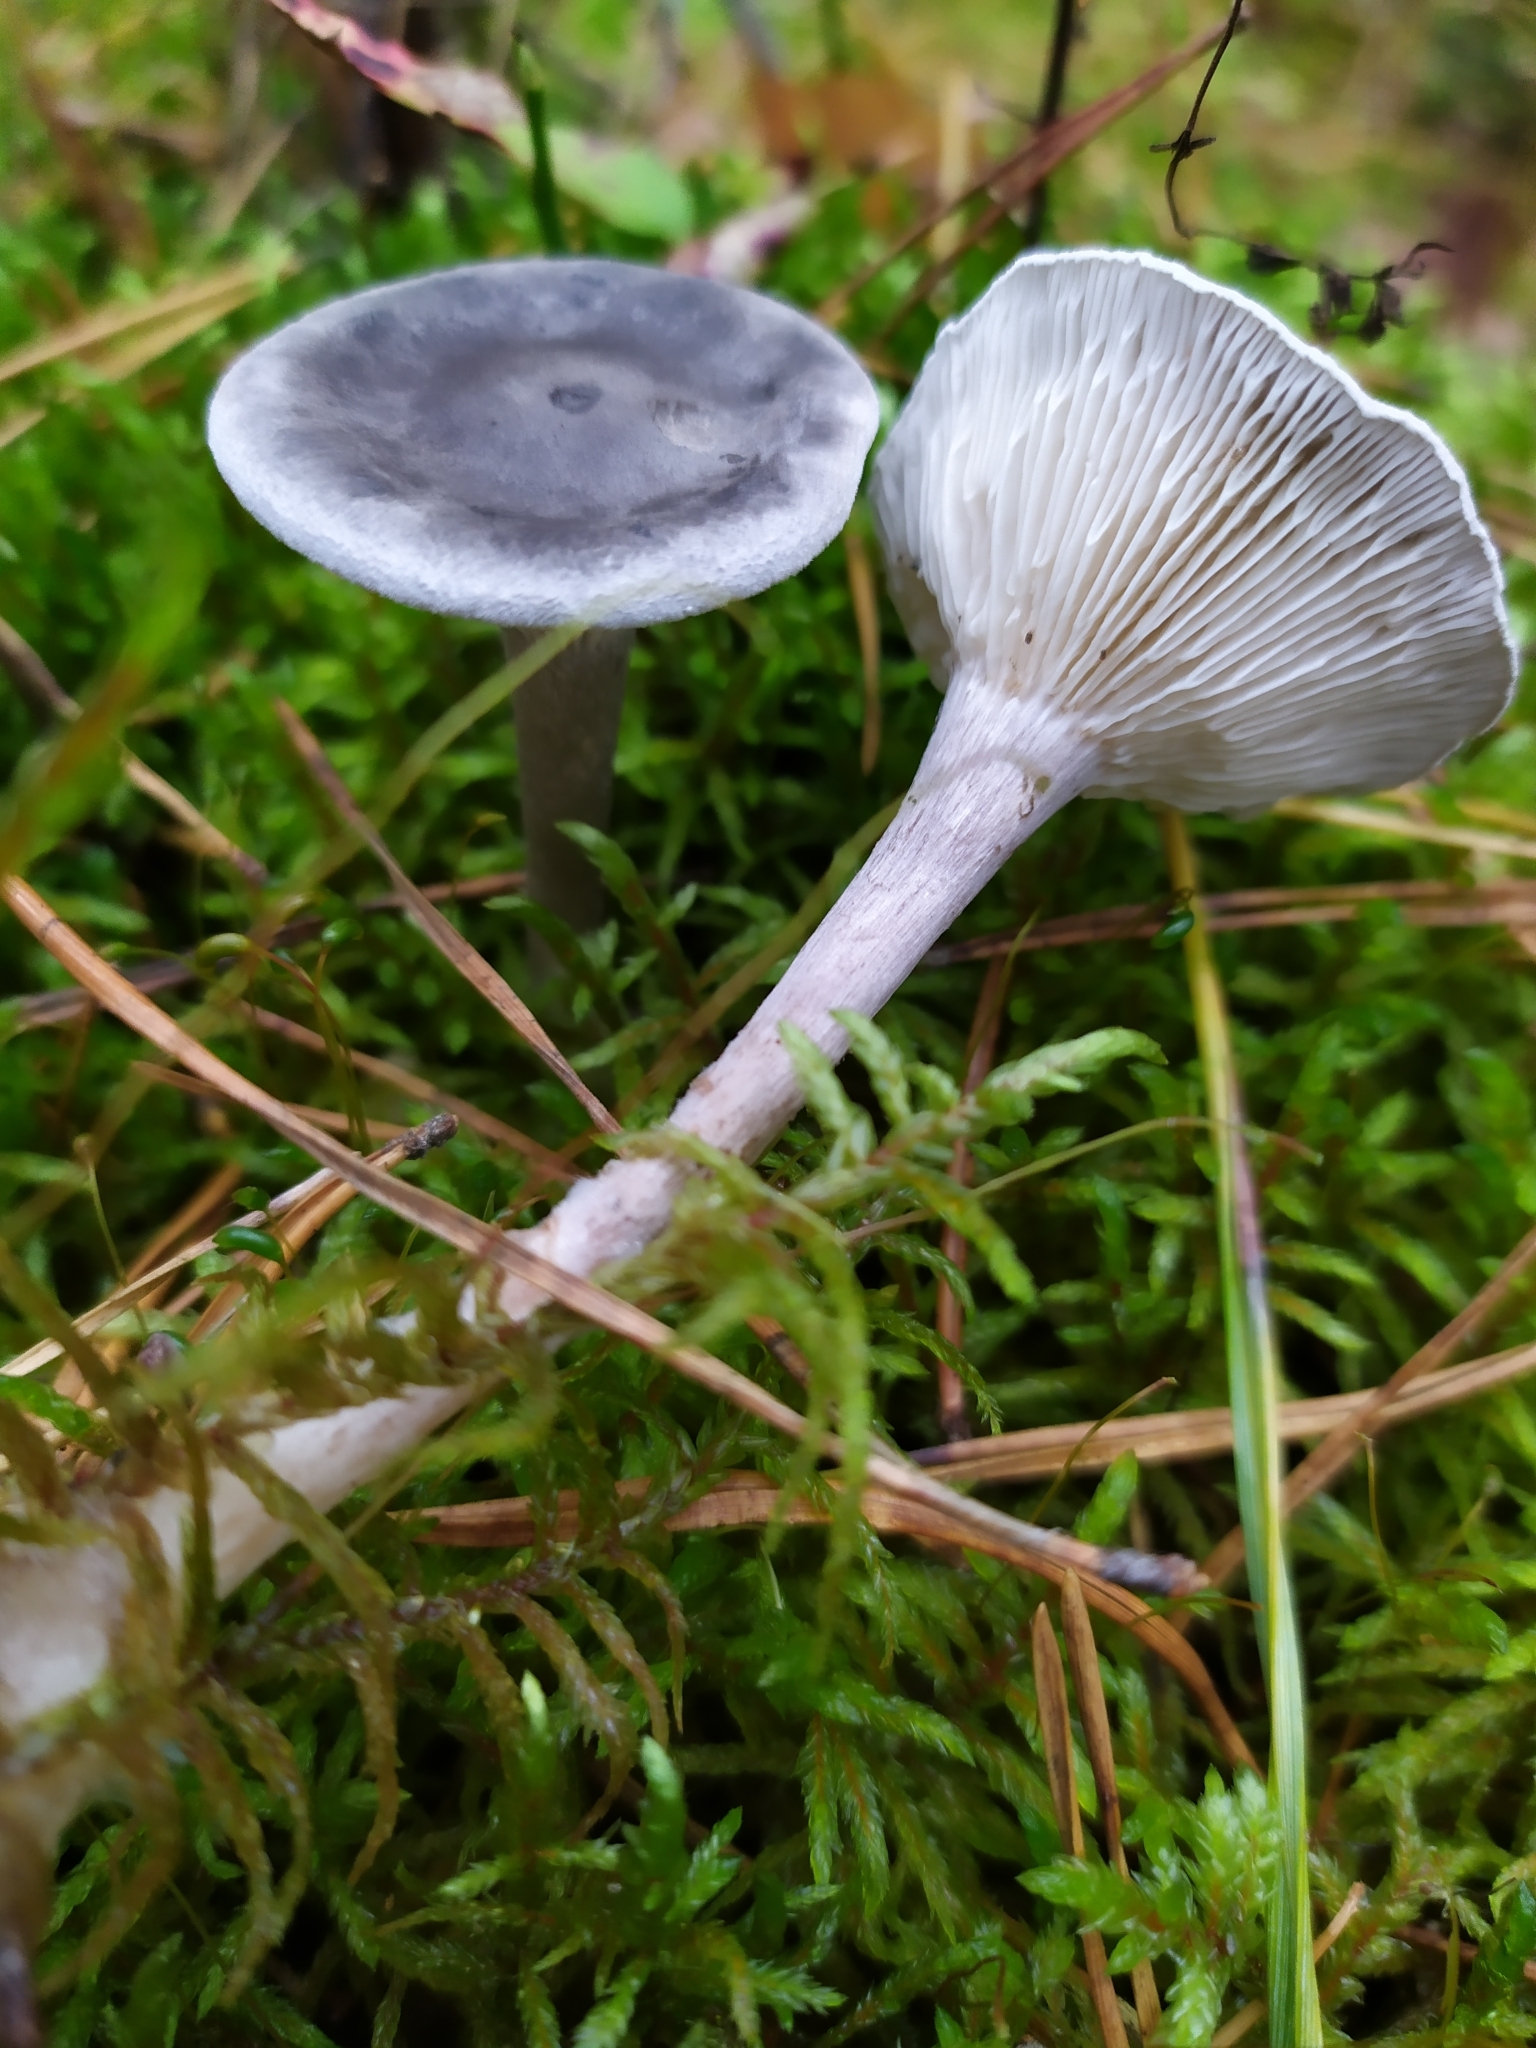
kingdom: Fungi
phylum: Basidiomycota
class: Agaricomycetes
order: Agaricales
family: Hygrophoraceae
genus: Cantharellula
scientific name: Cantharellula umbonata
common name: The humpback
